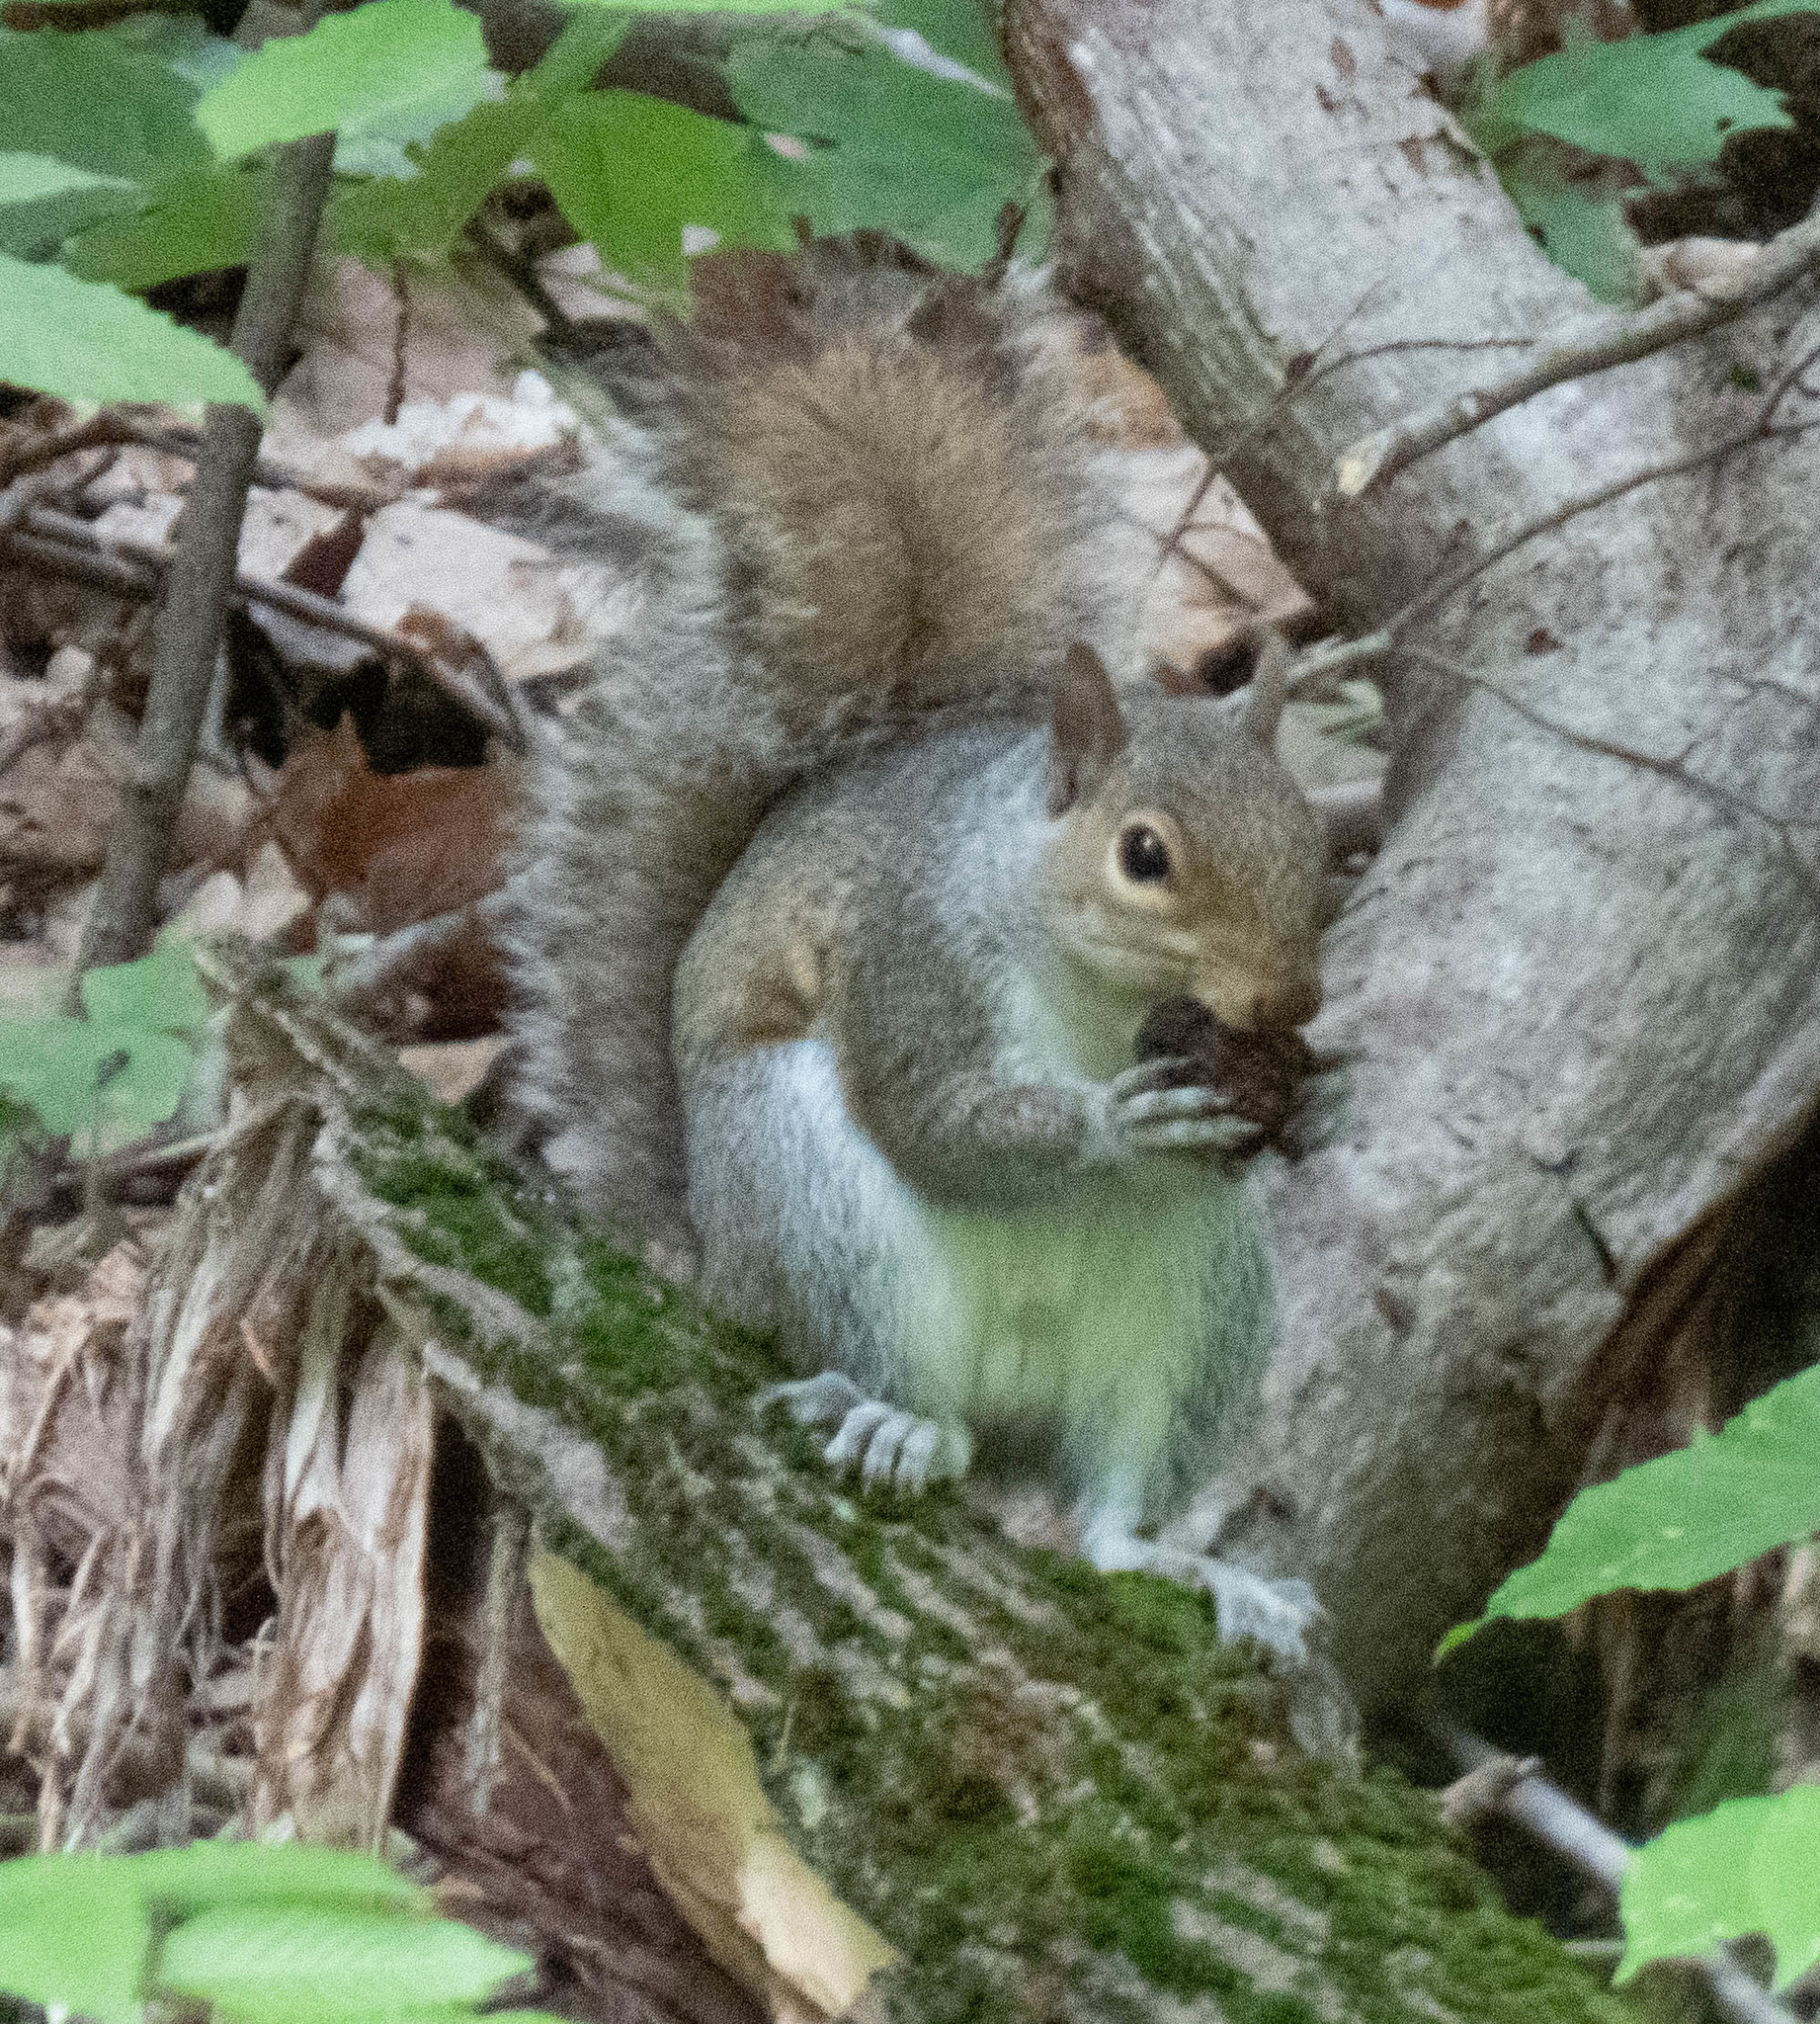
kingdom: Animalia
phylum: Chordata
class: Mammalia
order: Rodentia
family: Sciuridae
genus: Sciurus
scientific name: Sciurus carolinensis
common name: Eastern gray squirrel
